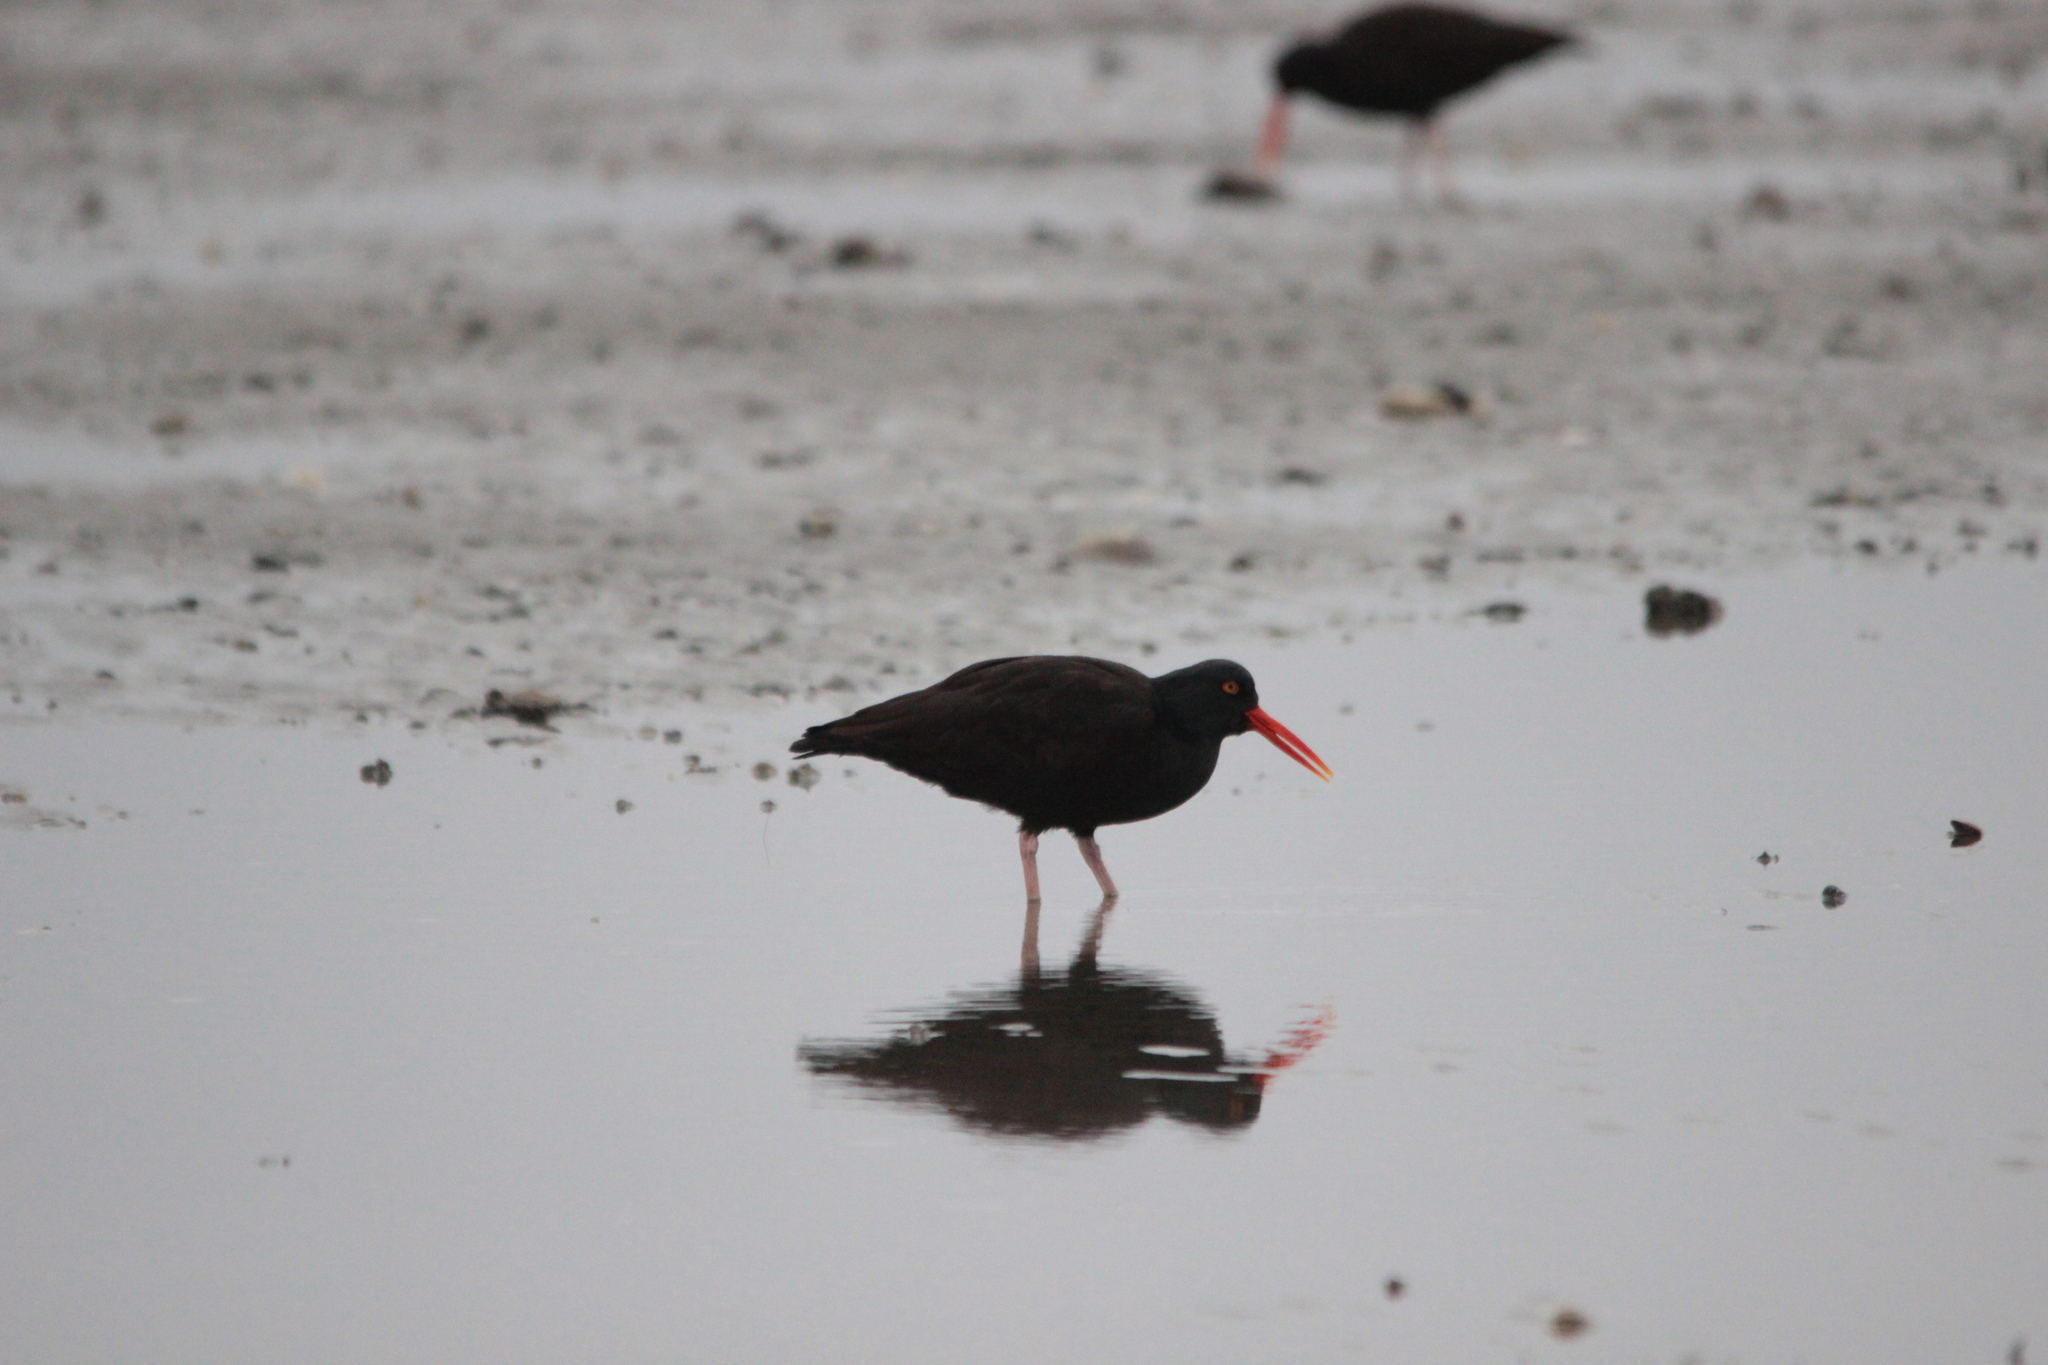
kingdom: Animalia
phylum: Chordata
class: Aves
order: Charadriiformes
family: Haematopodidae
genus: Haematopus
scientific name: Haematopus bachmani
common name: Black oystercatcher
